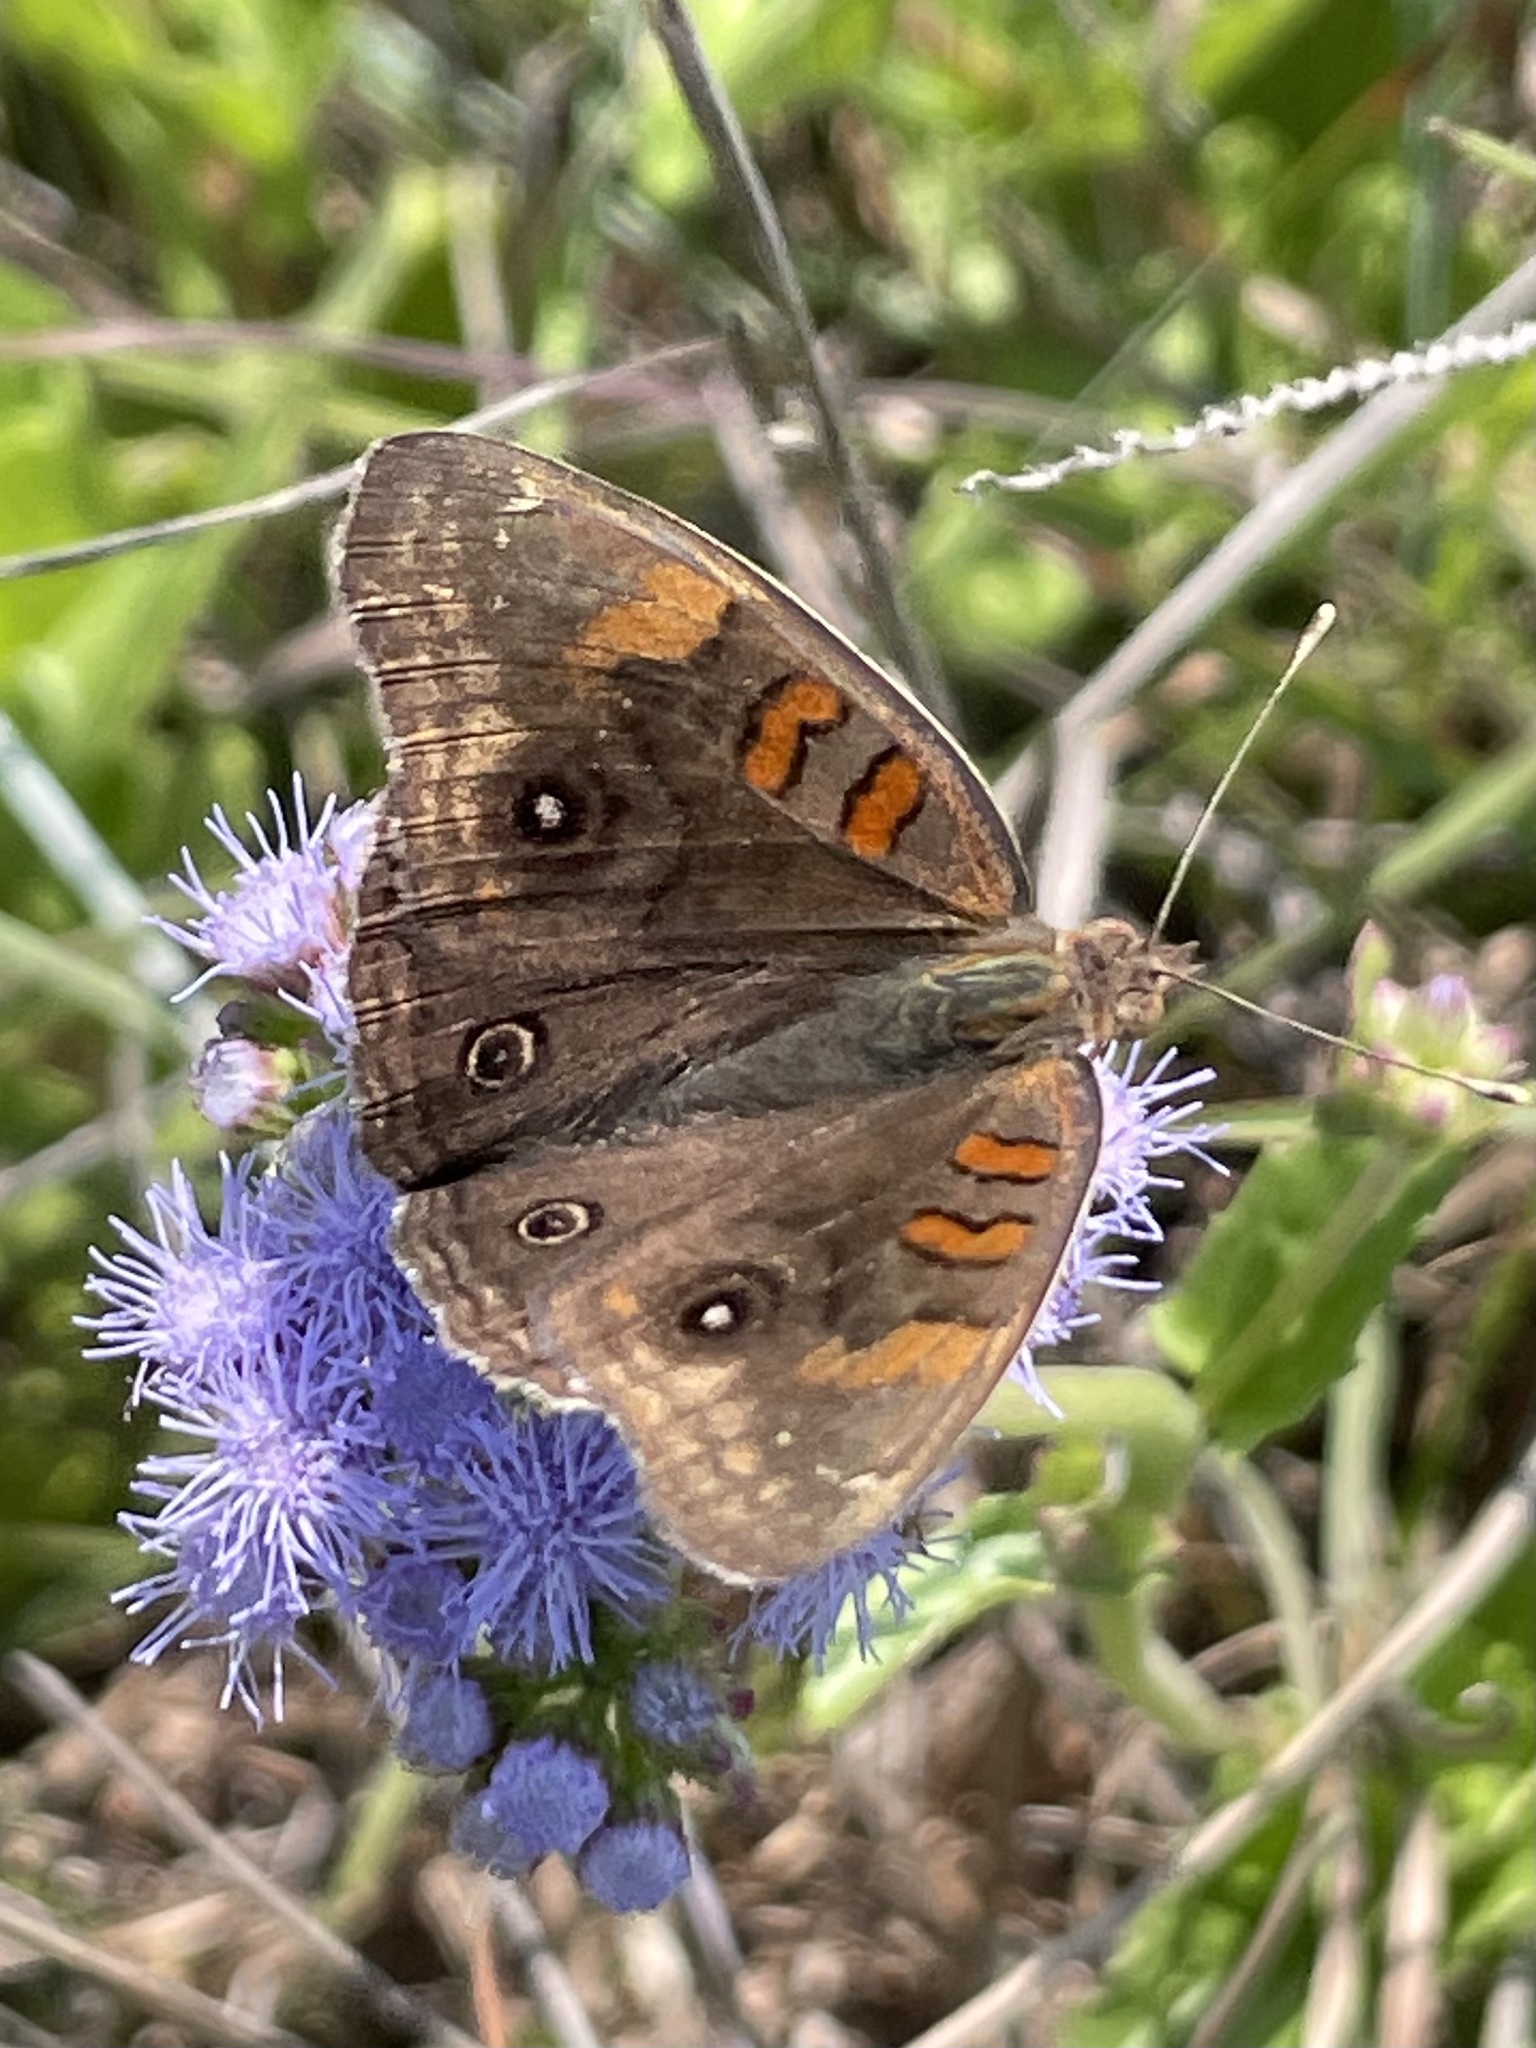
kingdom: Animalia
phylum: Arthropoda
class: Insecta
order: Lepidoptera
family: Nymphalidae
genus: Junonia
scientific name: Junonia stemosa
